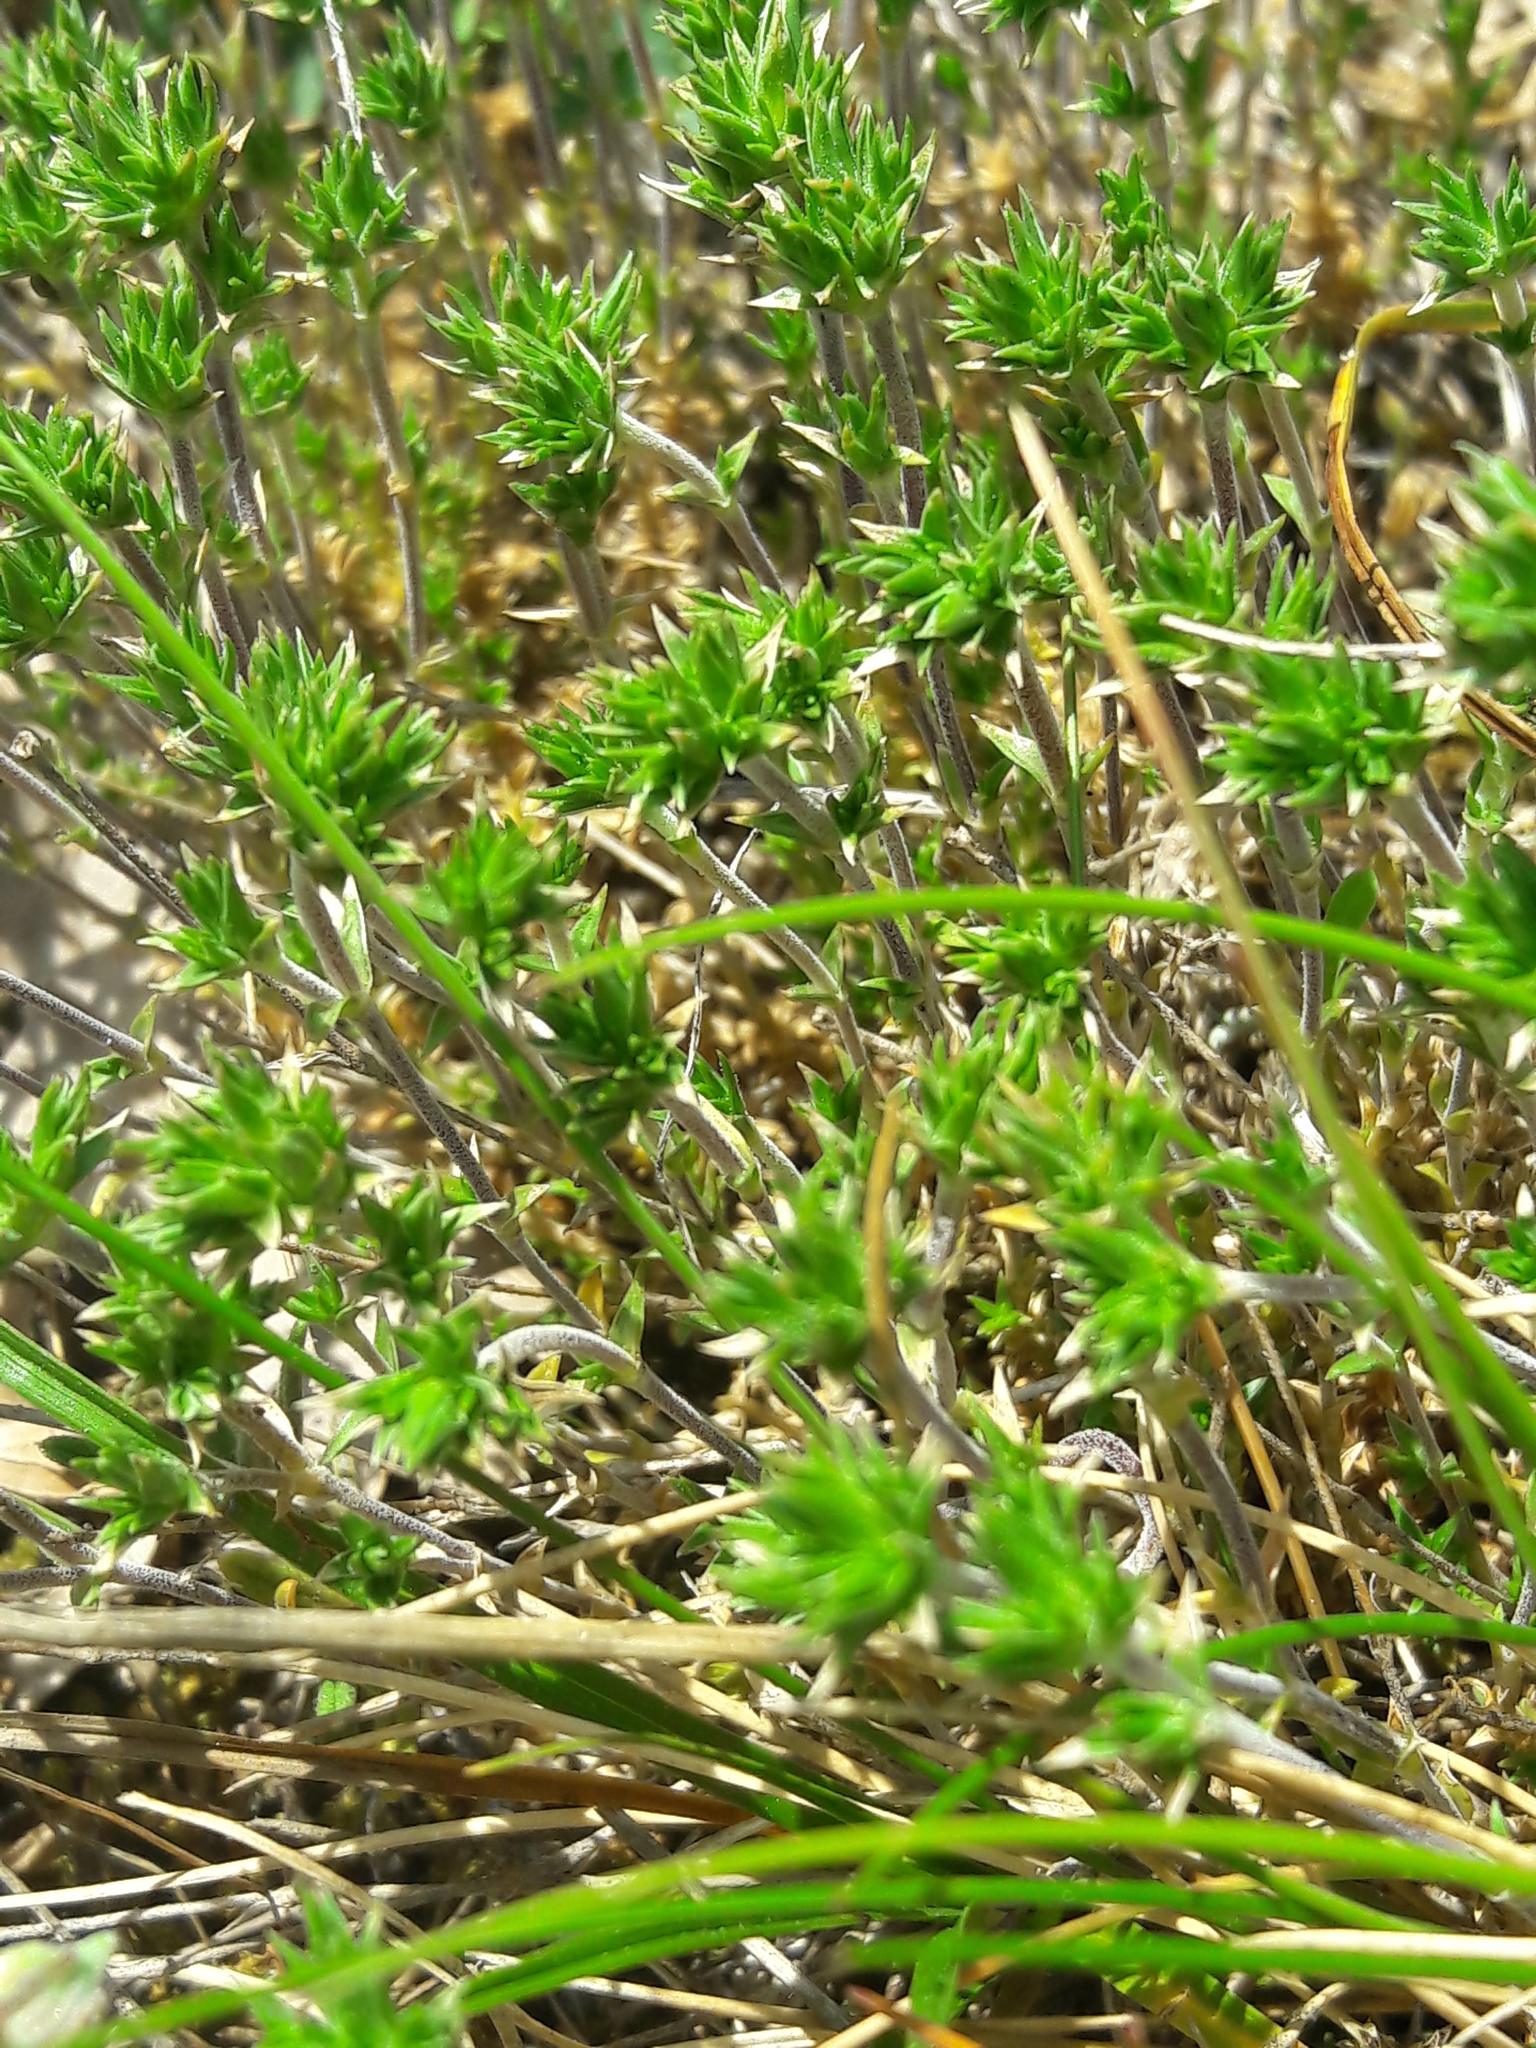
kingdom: Plantae
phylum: Tracheophyta
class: Magnoliopsida
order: Caryophyllales
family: Caryophyllaceae
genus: Arenaria
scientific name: Arenaria aggregata
